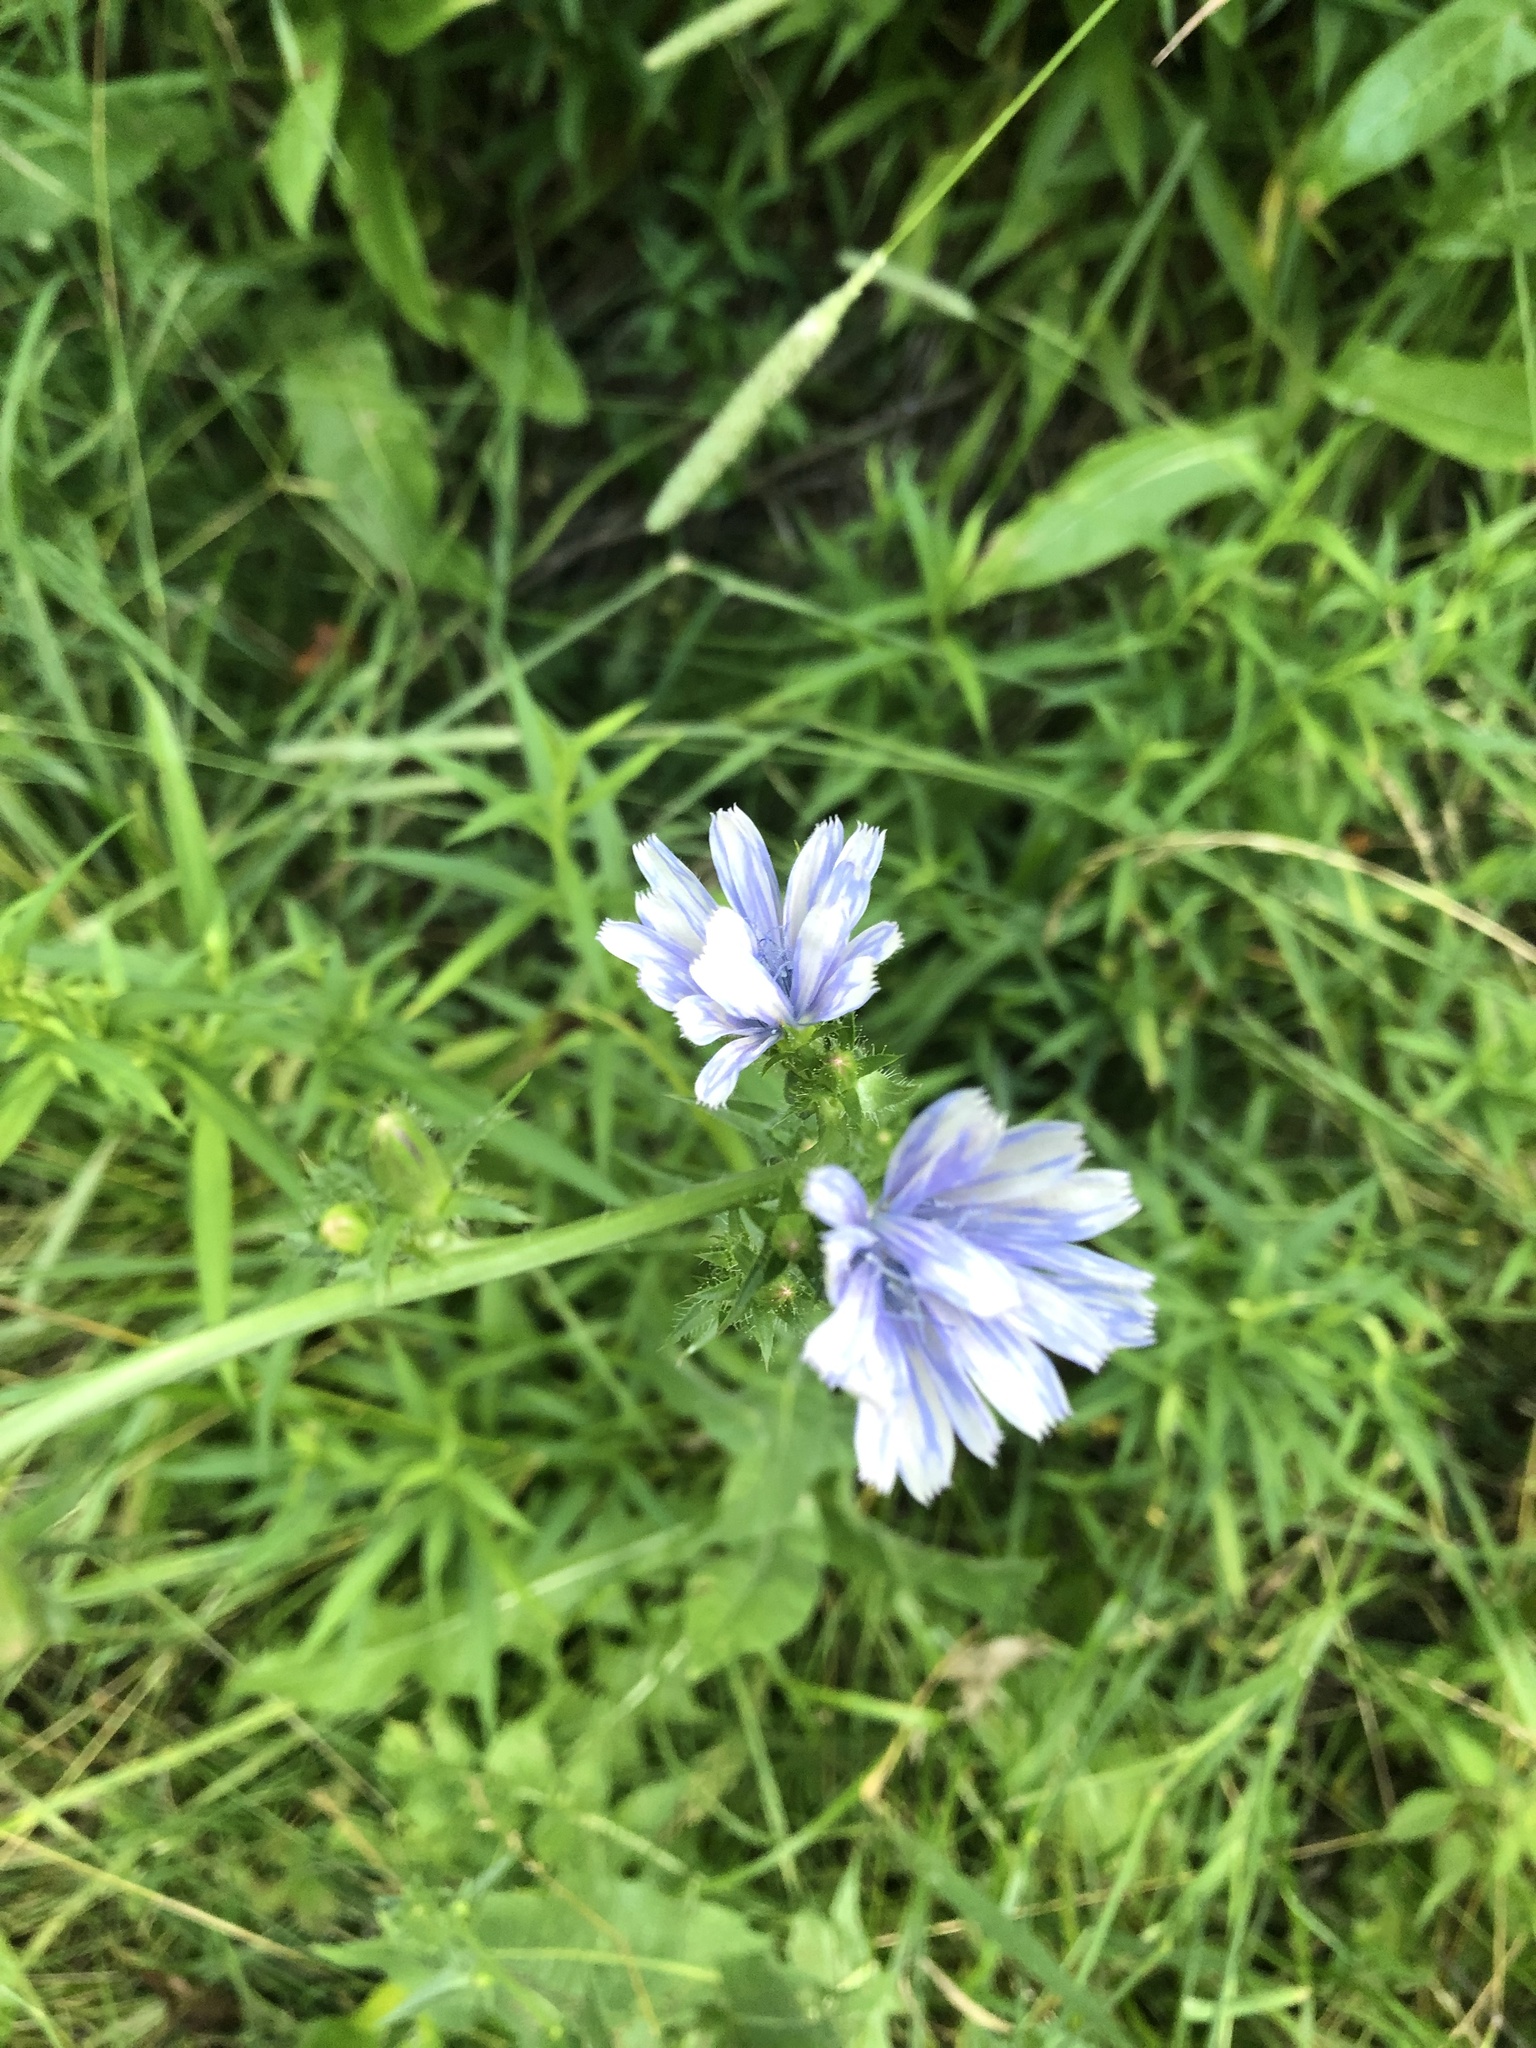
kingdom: Plantae
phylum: Tracheophyta
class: Magnoliopsida
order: Asterales
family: Asteraceae
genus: Cichorium
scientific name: Cichorium intybus
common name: Chicory
